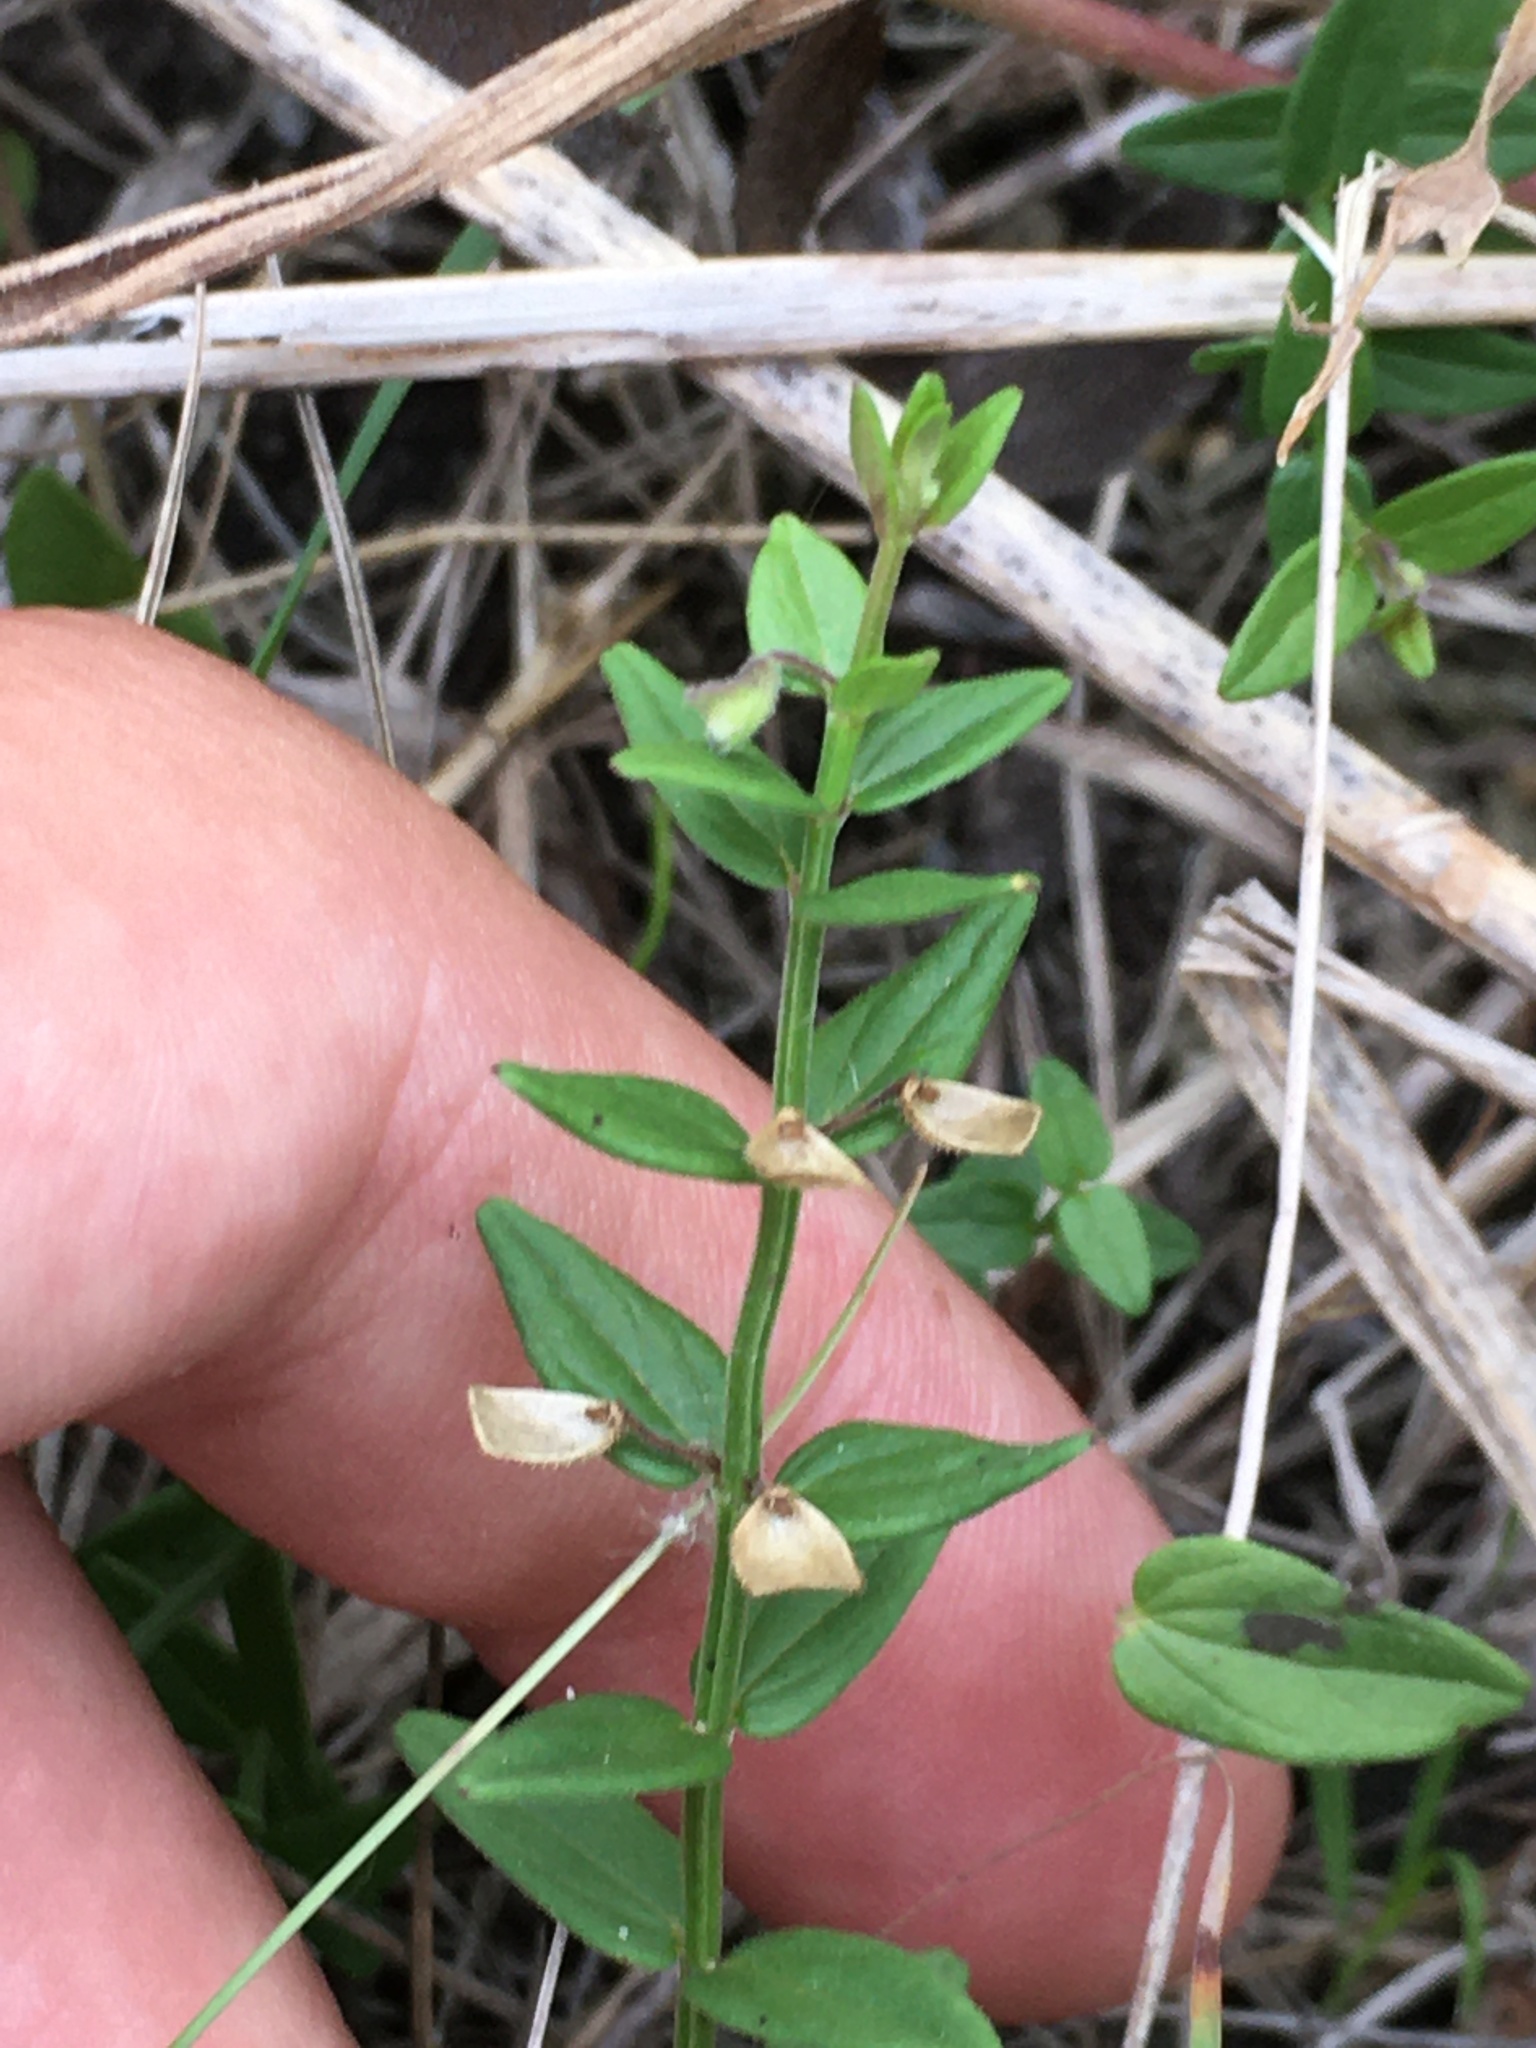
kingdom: Plantae
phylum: Tracheophyta
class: Magnoliopsida
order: Lamiales
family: Lamiaceae
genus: Scutellaria
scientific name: Scutellaria parvula
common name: Little scullcap
